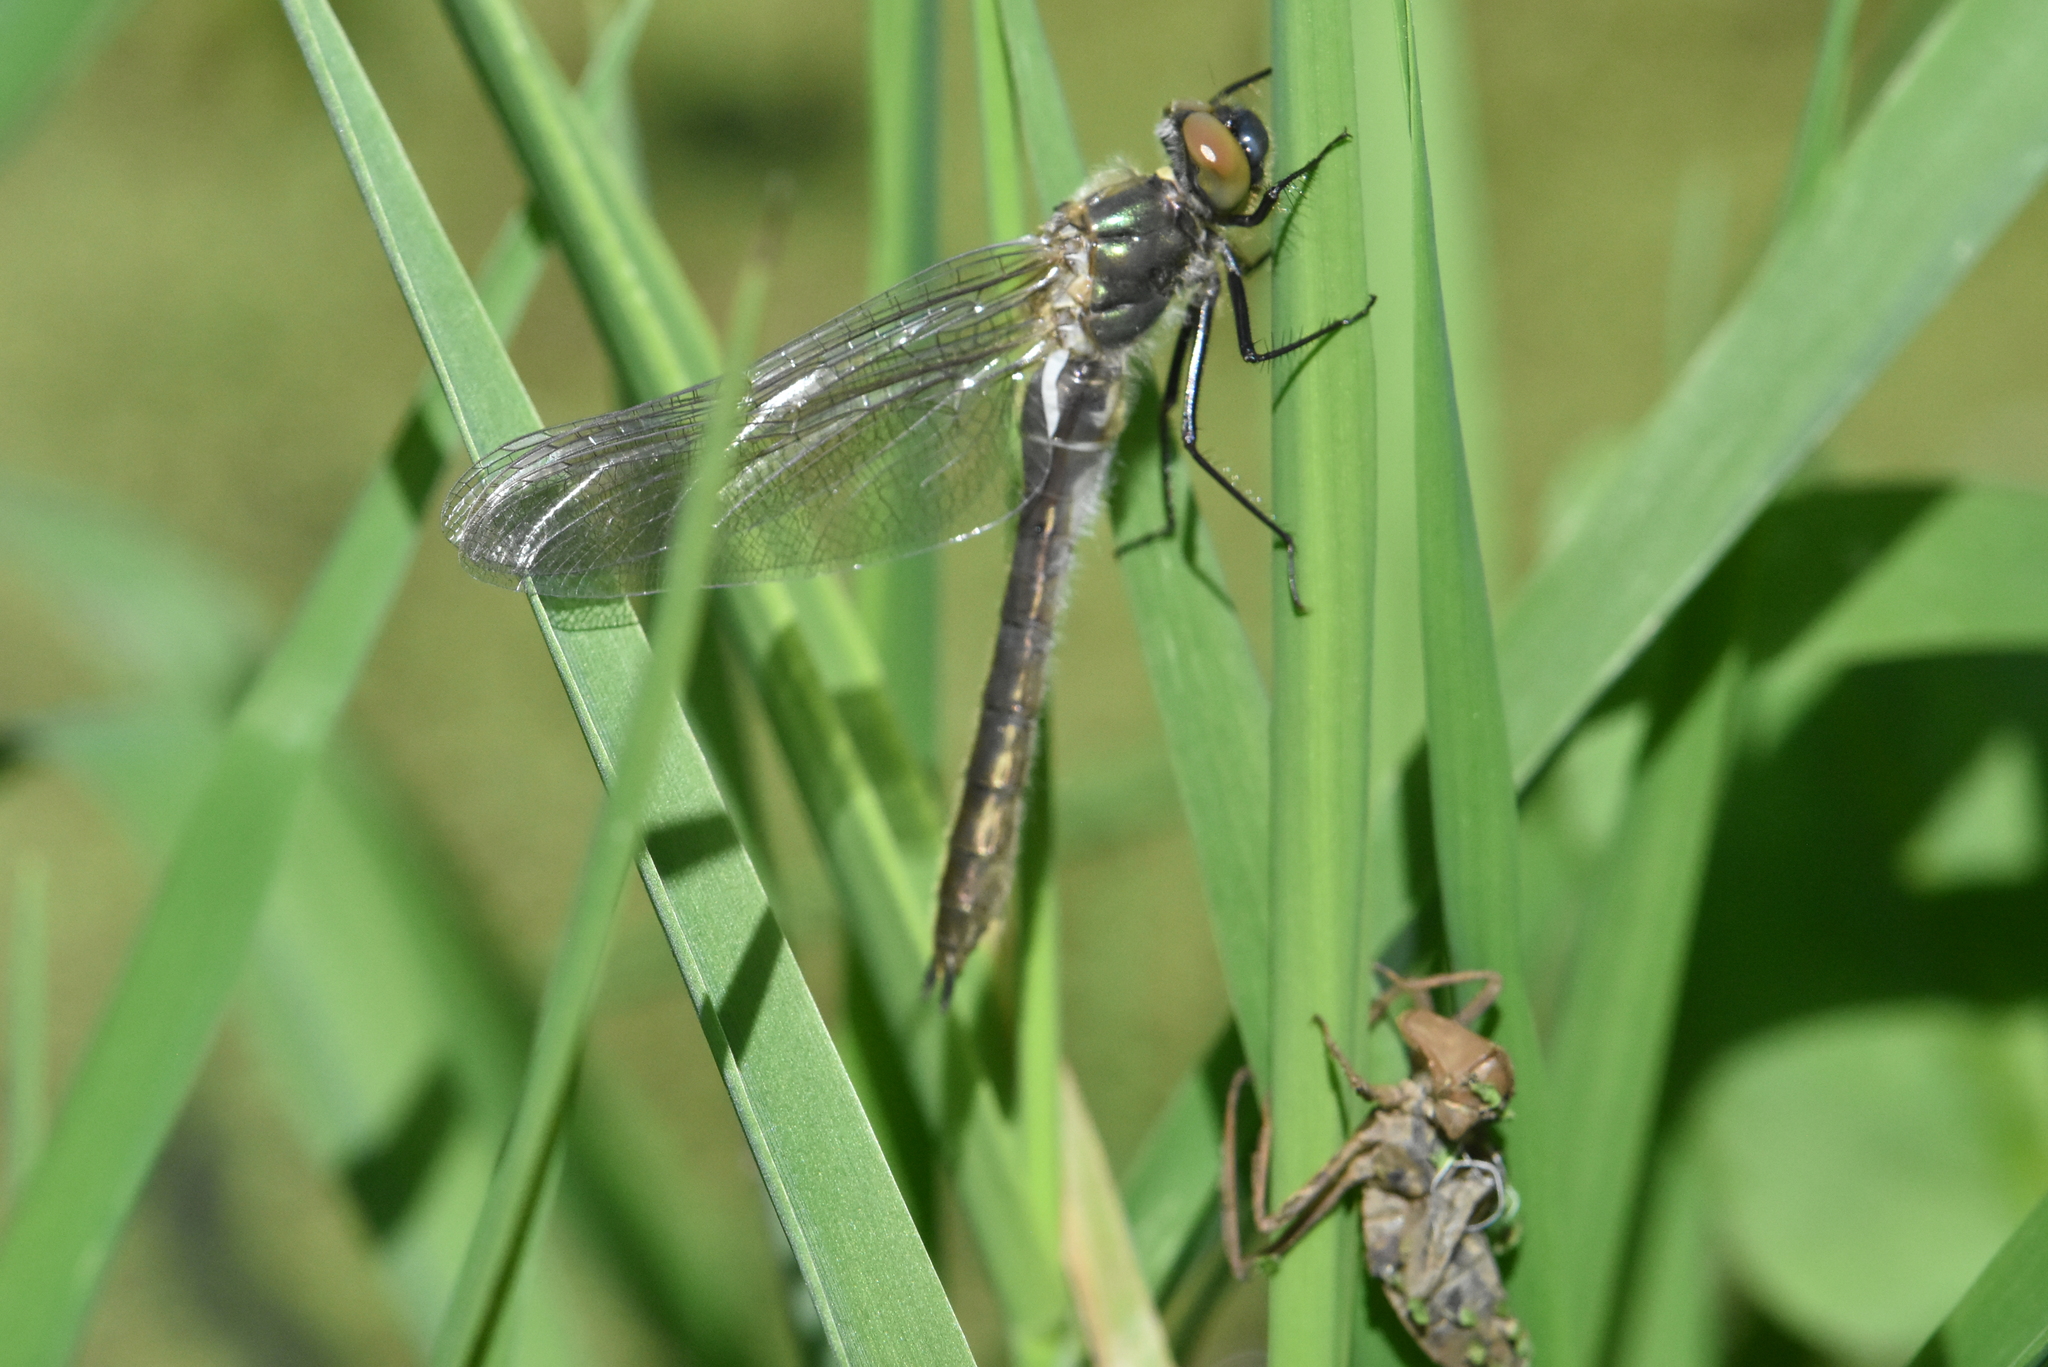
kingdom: Animalia
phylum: Arthropoda
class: Insecta
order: Odonata
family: Corduliidae
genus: Cordulia
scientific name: Cordulia aenea
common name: Downy emerald
